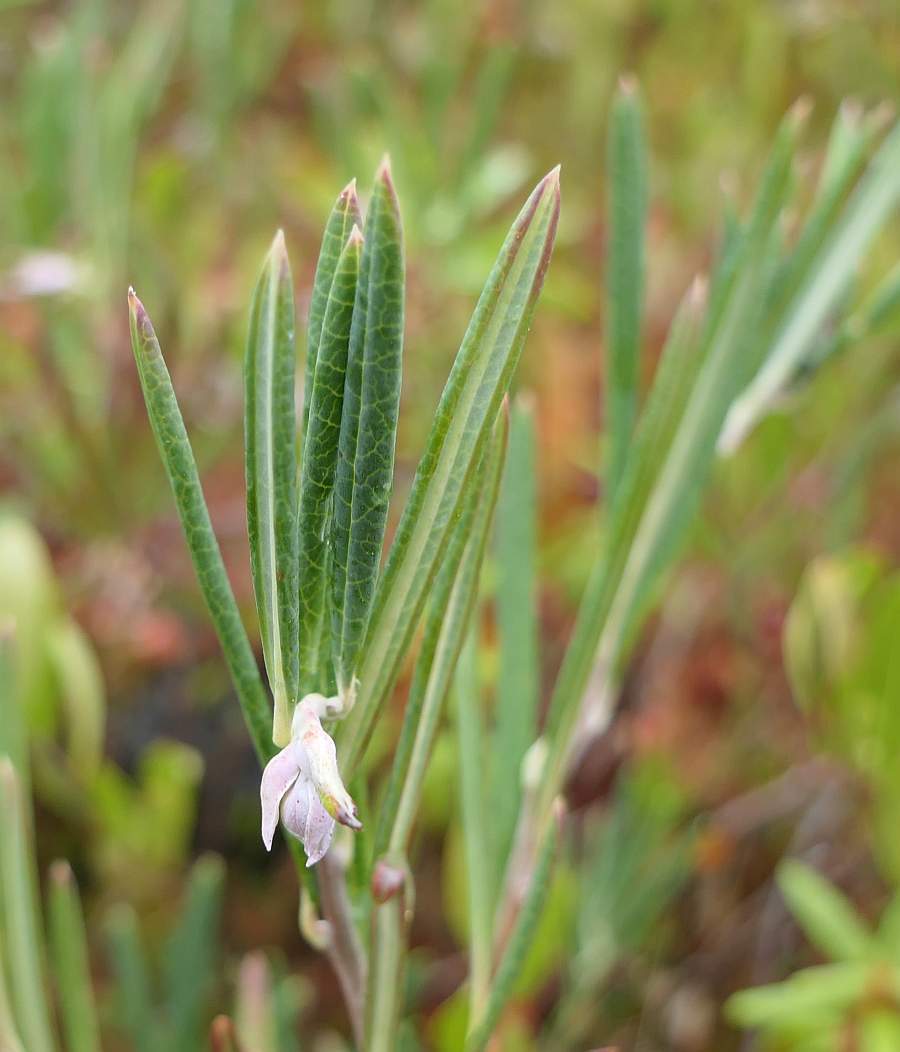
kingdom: Plantae
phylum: Tracheophyta
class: Magnoliopsida
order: Ericales
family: Ericaceae
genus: Andromeda
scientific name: Andromeda polifolia
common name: Bog-rosemary
